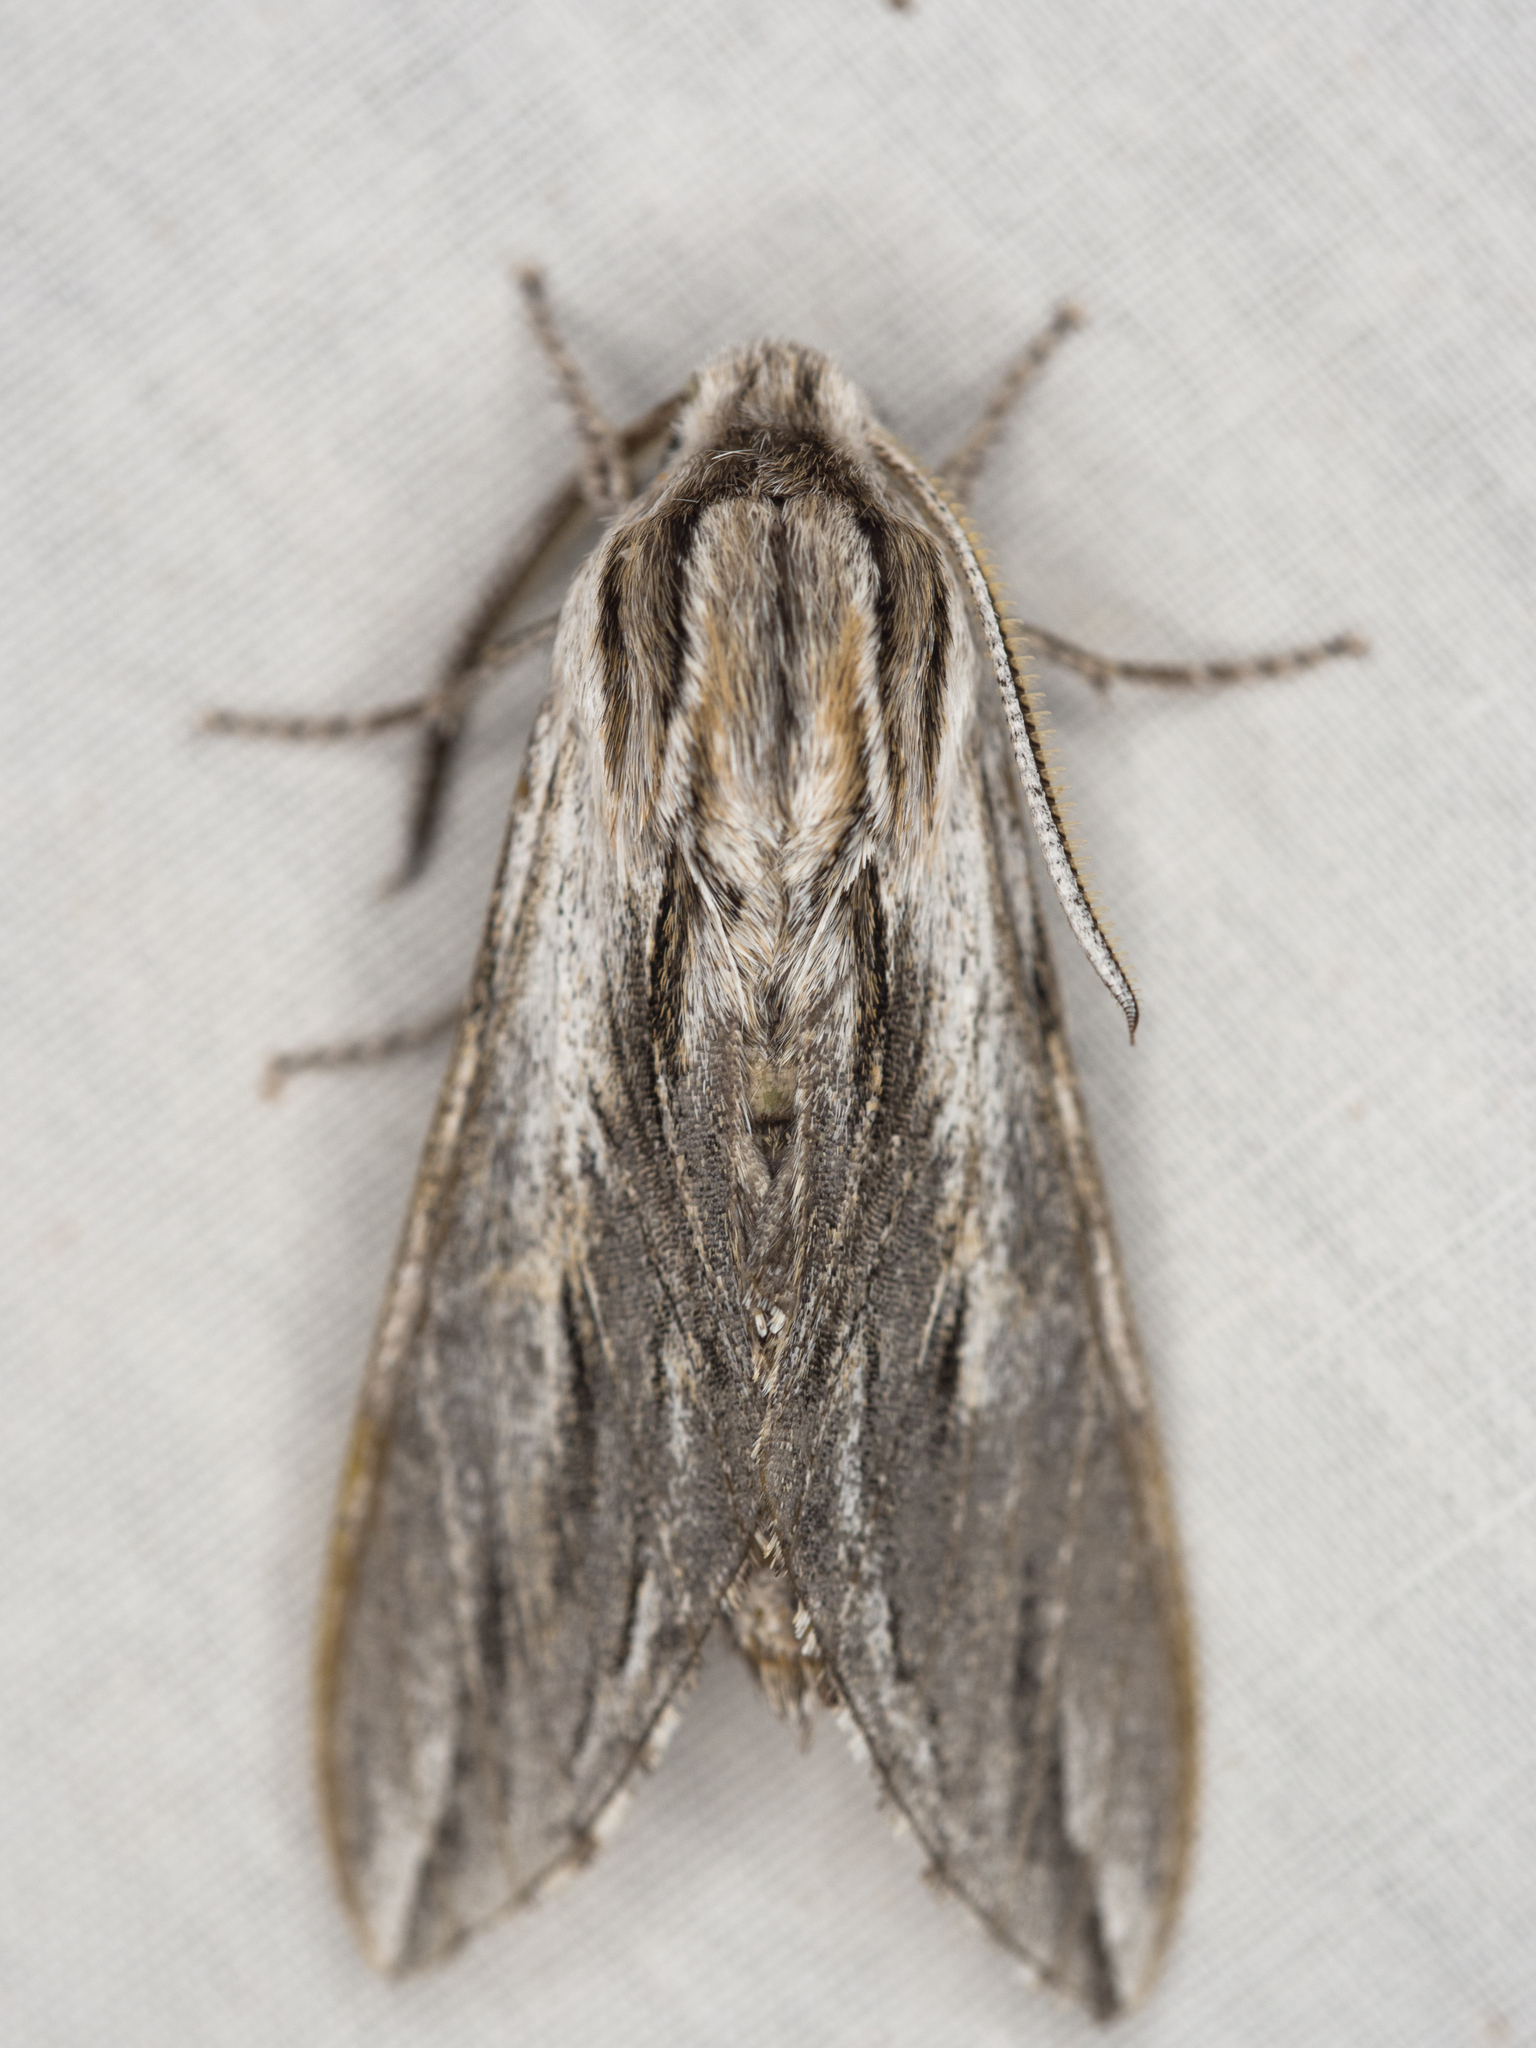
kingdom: Animalia
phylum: Arthropoda
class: Insecta
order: Lepidoptera
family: Sphingidae
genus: Sphinx
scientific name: Sphinx dollii
